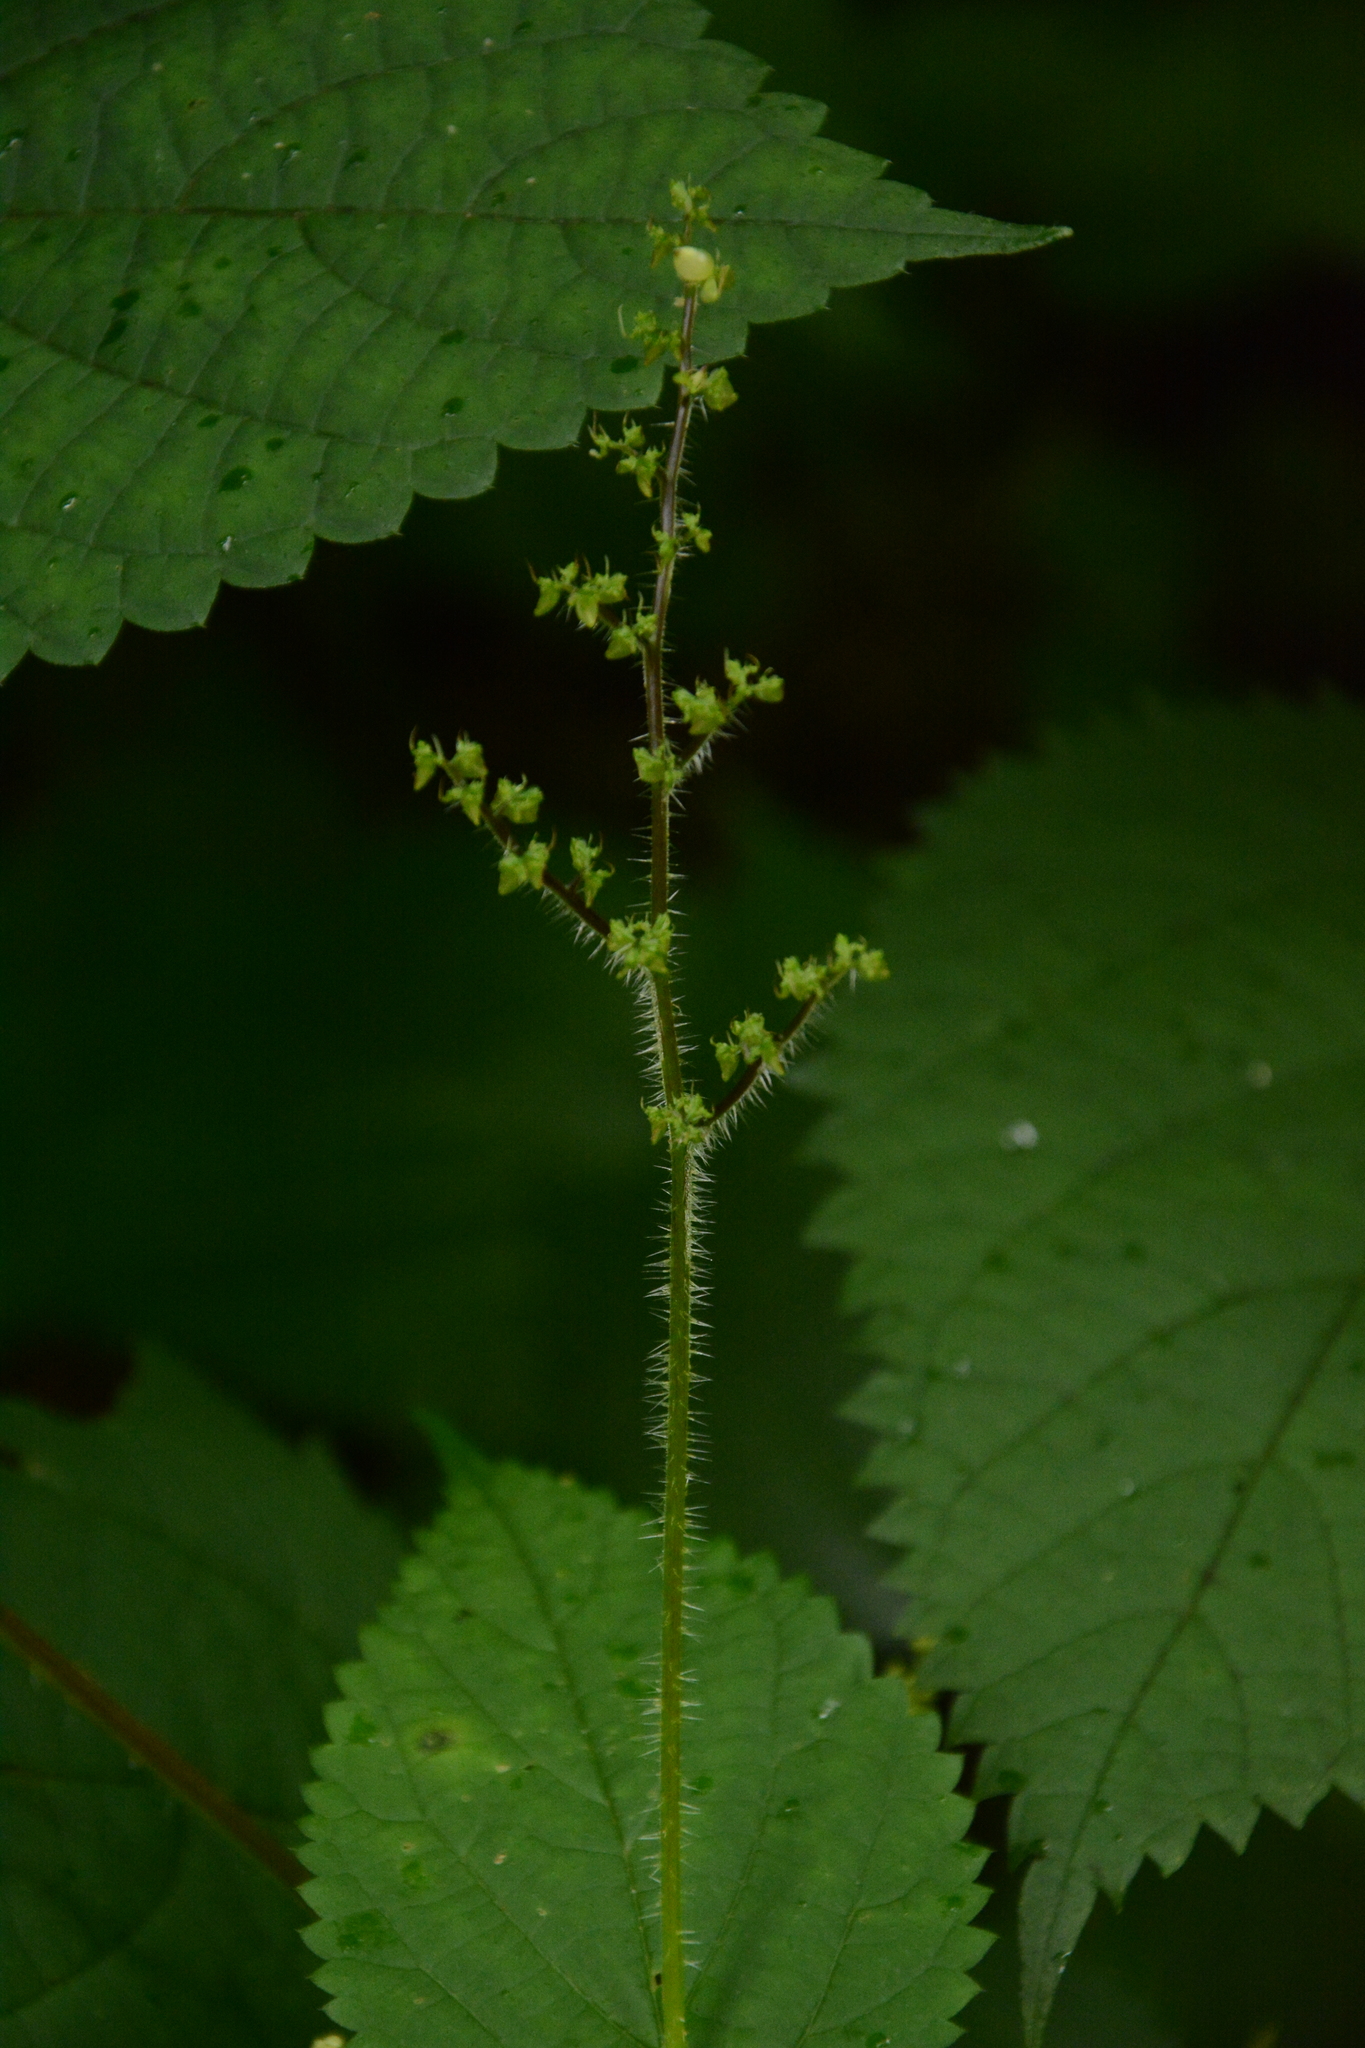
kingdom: Plantae
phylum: Tracheophyta
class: Magnoliopsida
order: Rosales
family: Urticaceae
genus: Laportea
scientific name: Laportea canadensis
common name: Canada nettle
